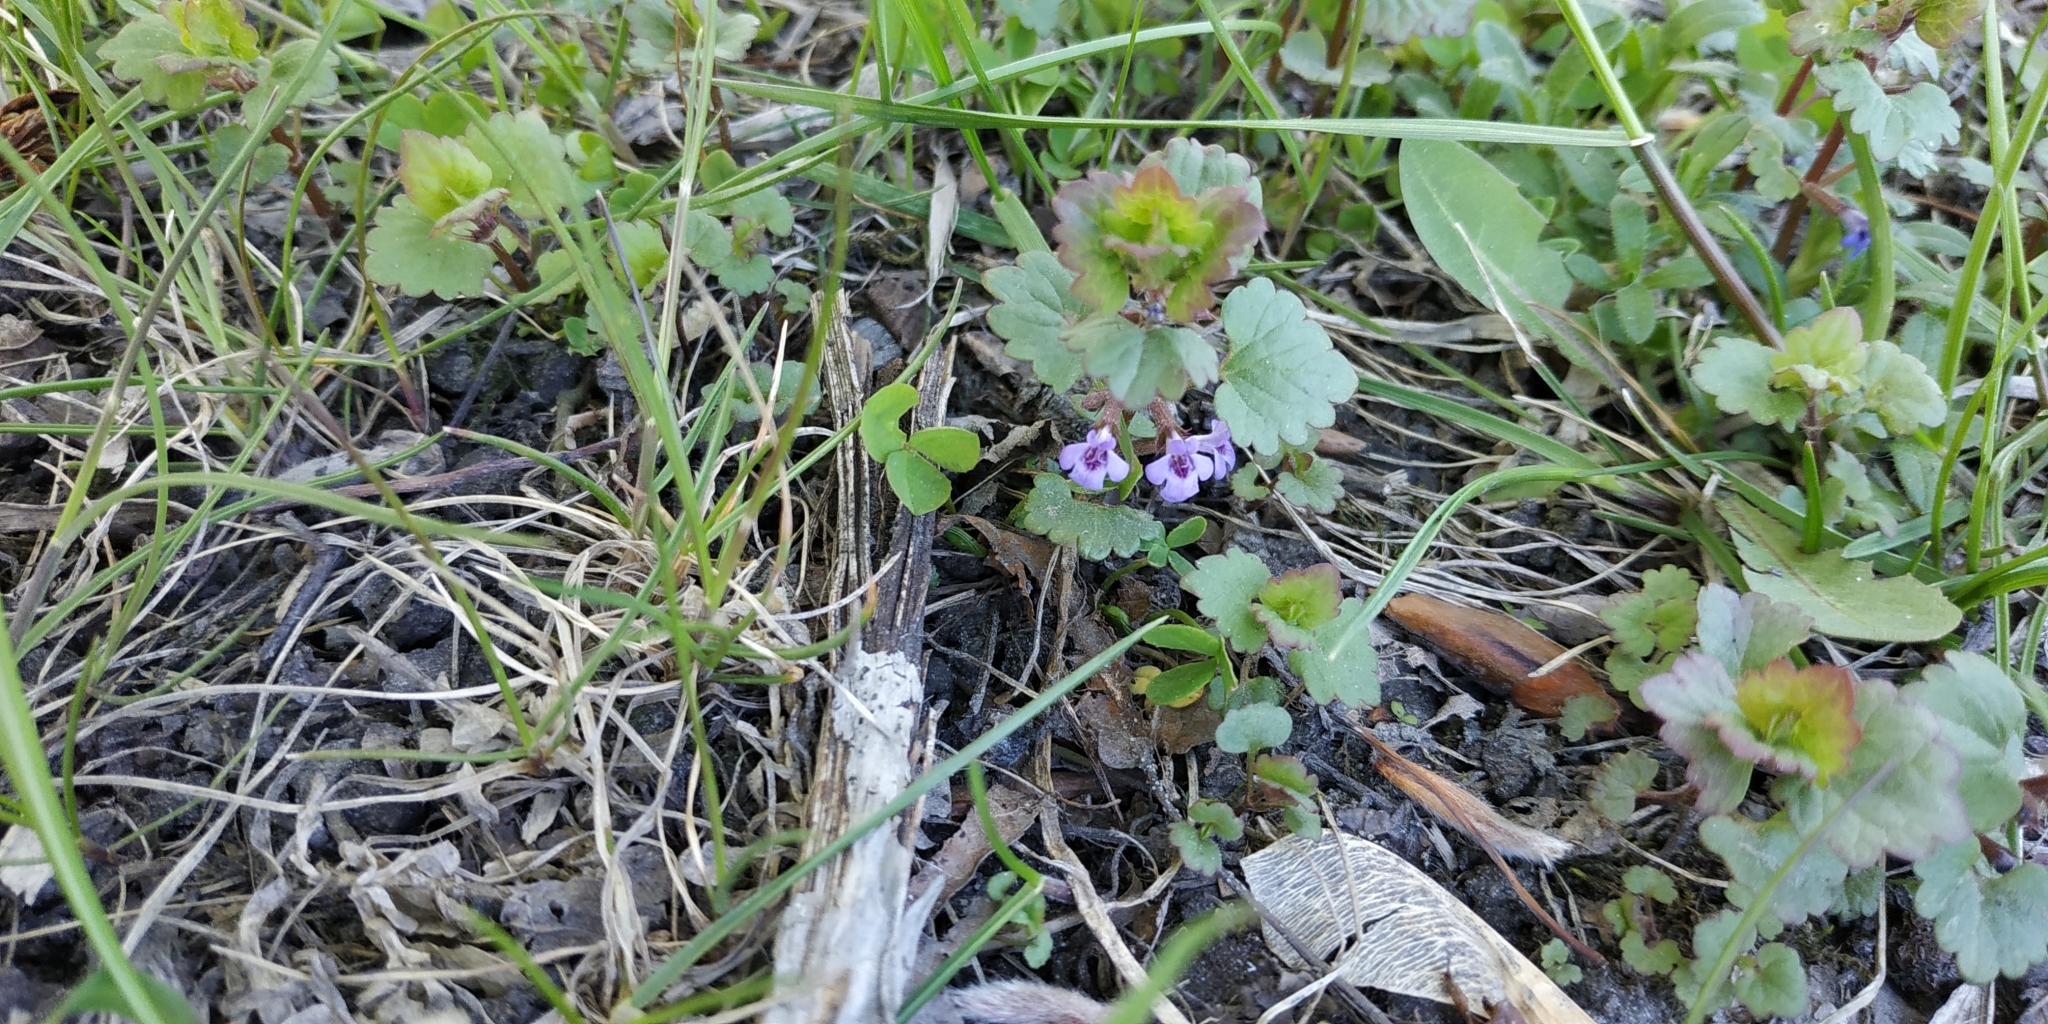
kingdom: Plantae
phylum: Tracheophyta
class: Magnoliopsida
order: Lamiales
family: Lamiaceae
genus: Glechoma
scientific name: Glechoma hederacea
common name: Ground ivy
